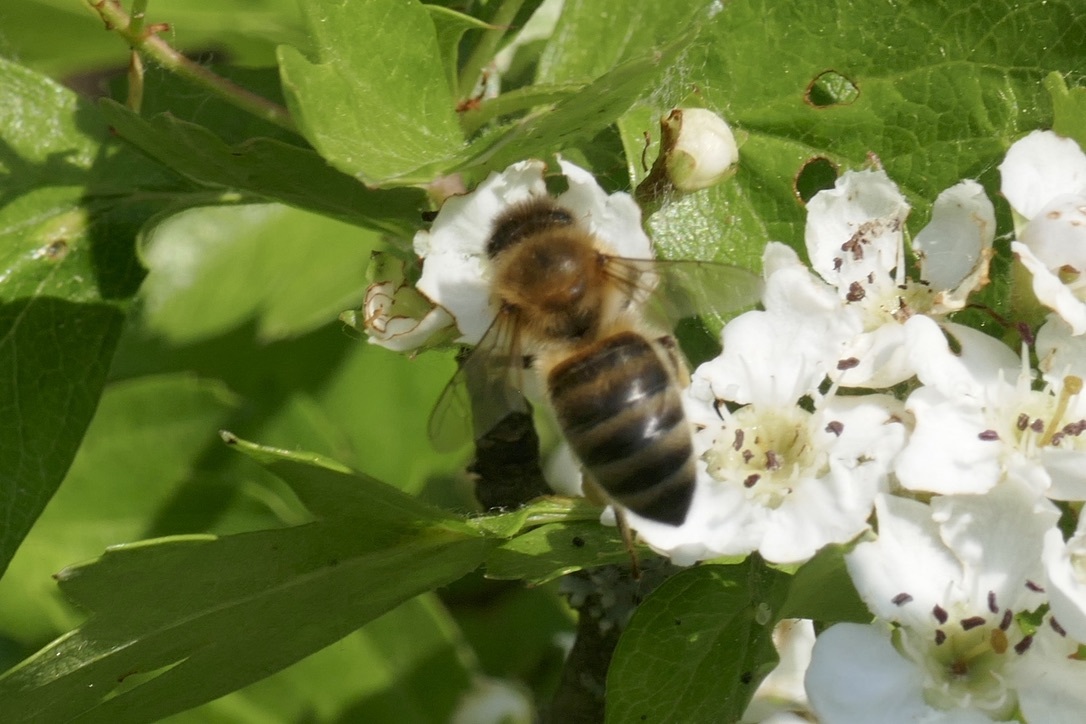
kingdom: Animalia
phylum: Arthropoda
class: Insecta
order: Hymenoptera
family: Apidae
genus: Apis
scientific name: Apis mellifera
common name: Honey bee
